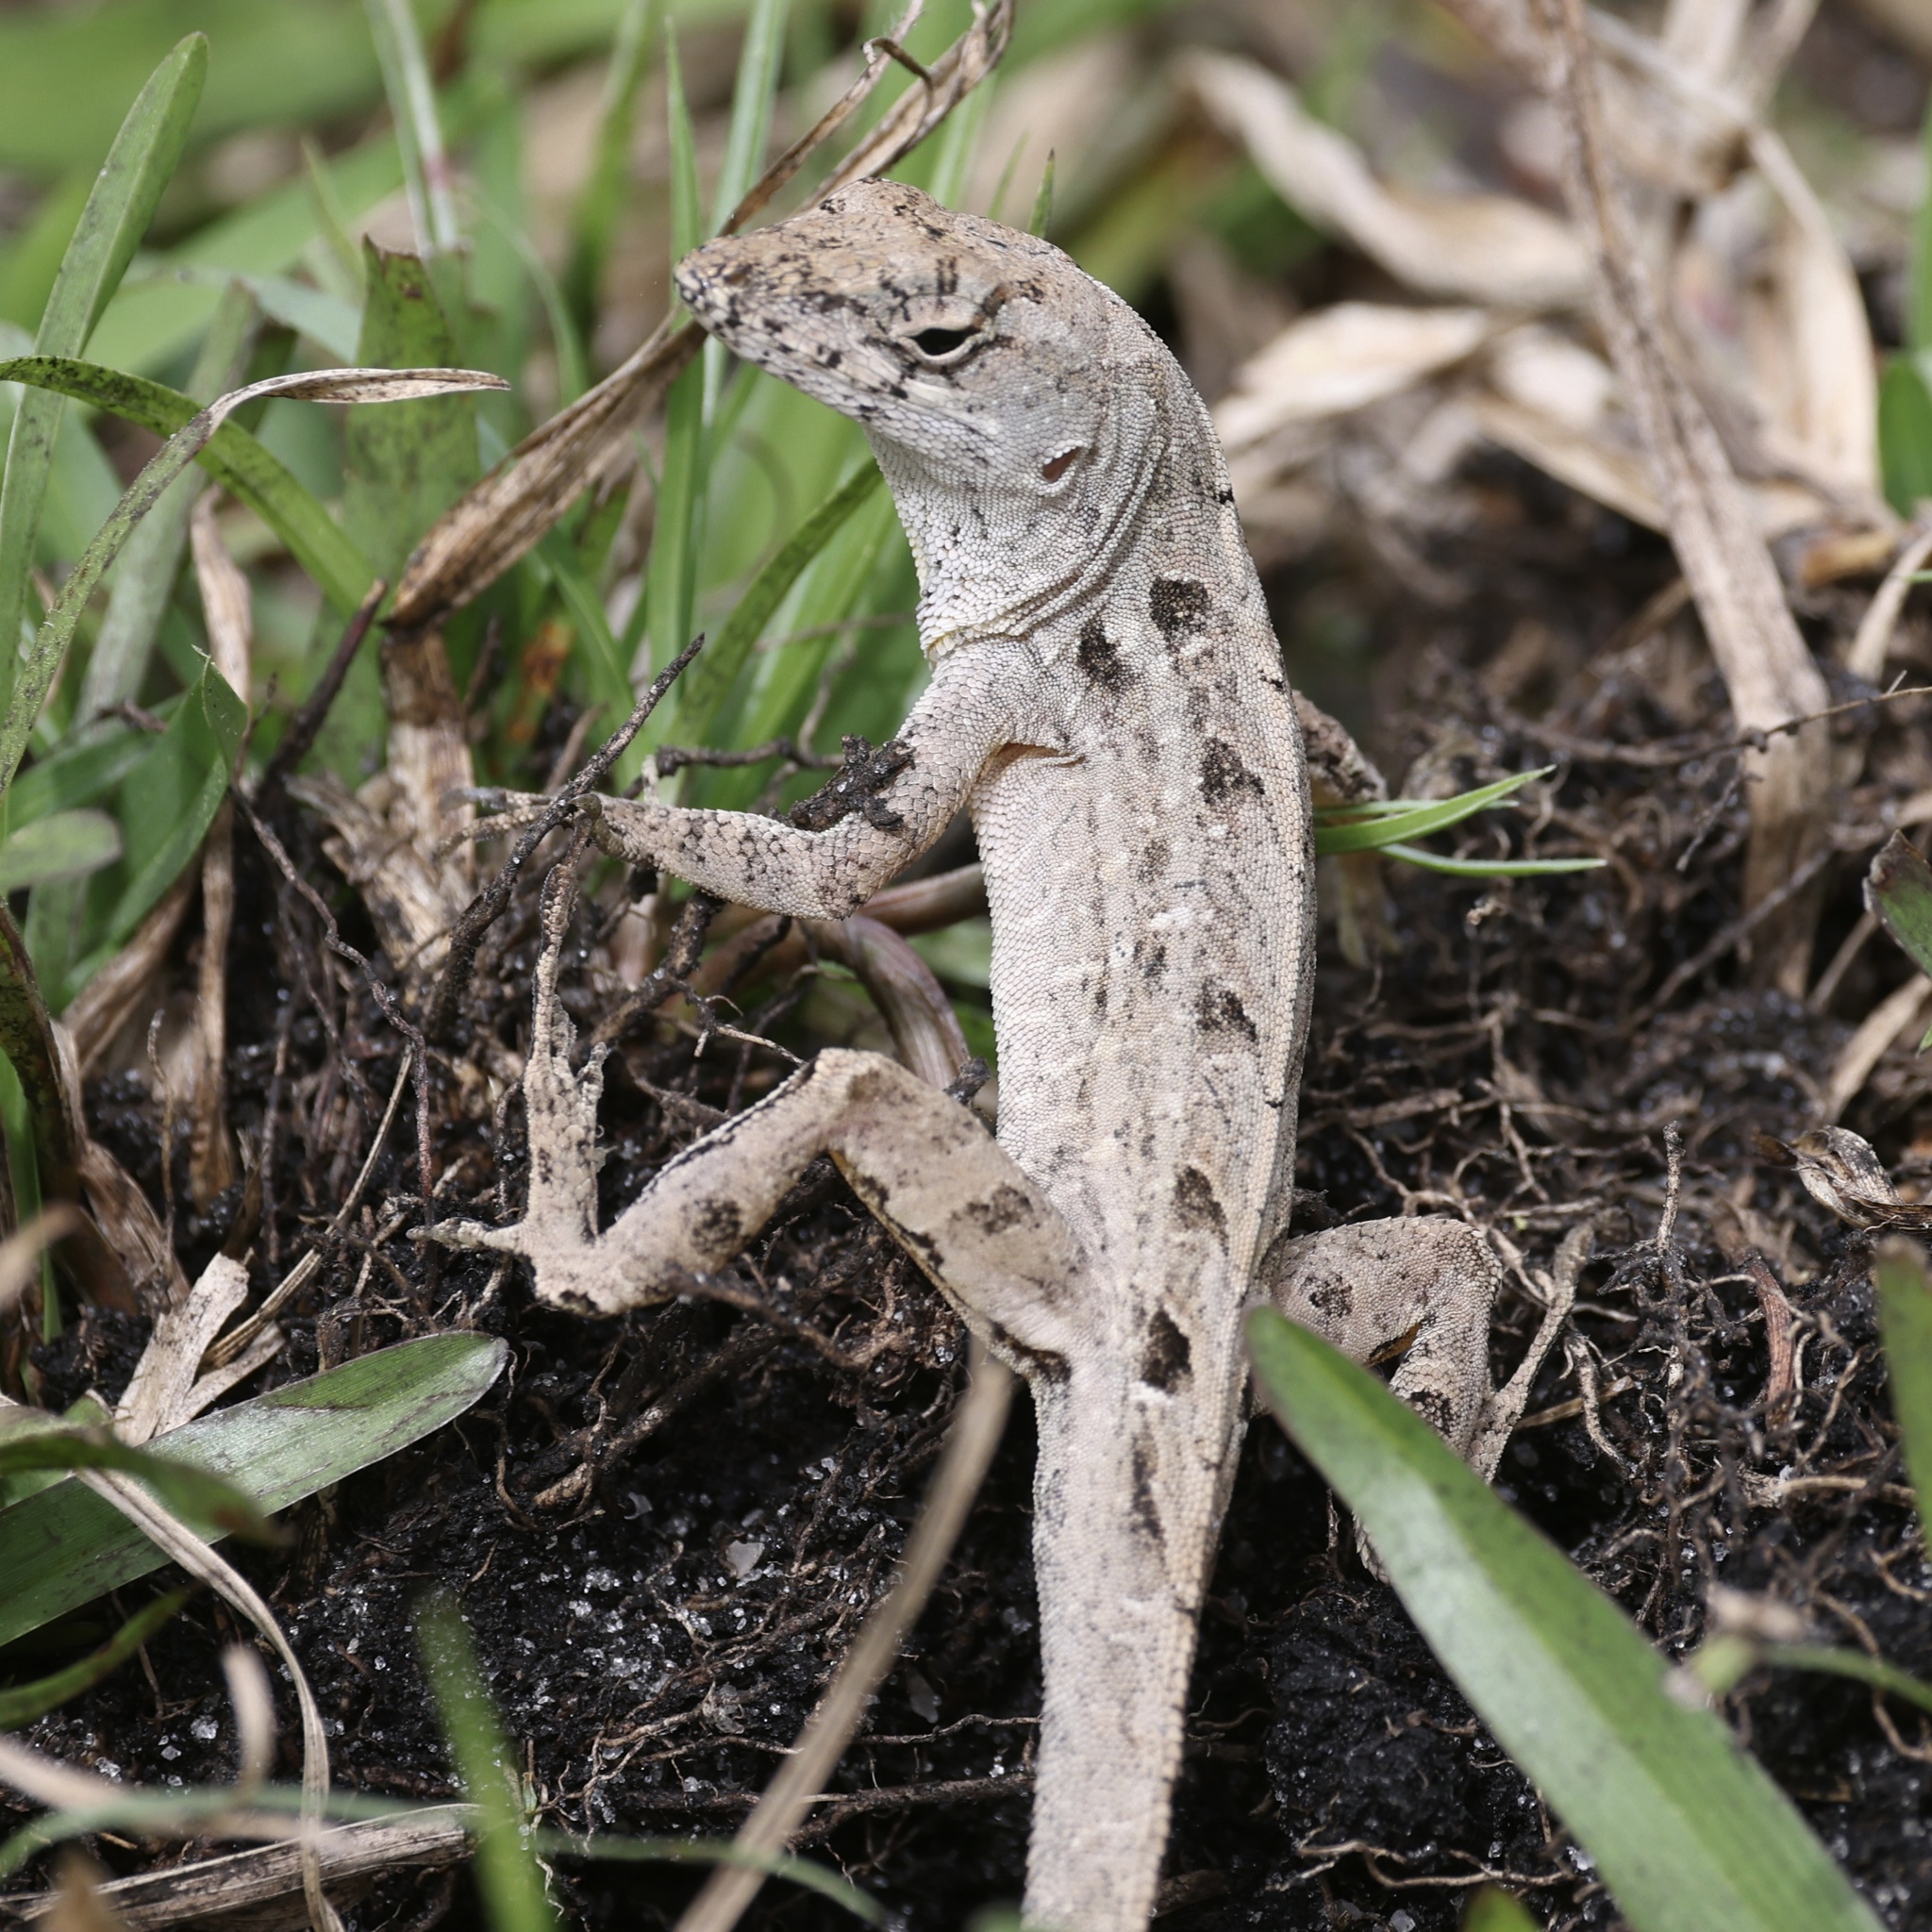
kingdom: Animalia
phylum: Chordata
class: Squamata
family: Dactyloidae
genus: Anolis
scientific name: Anolis sagrei
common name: Brown anole
